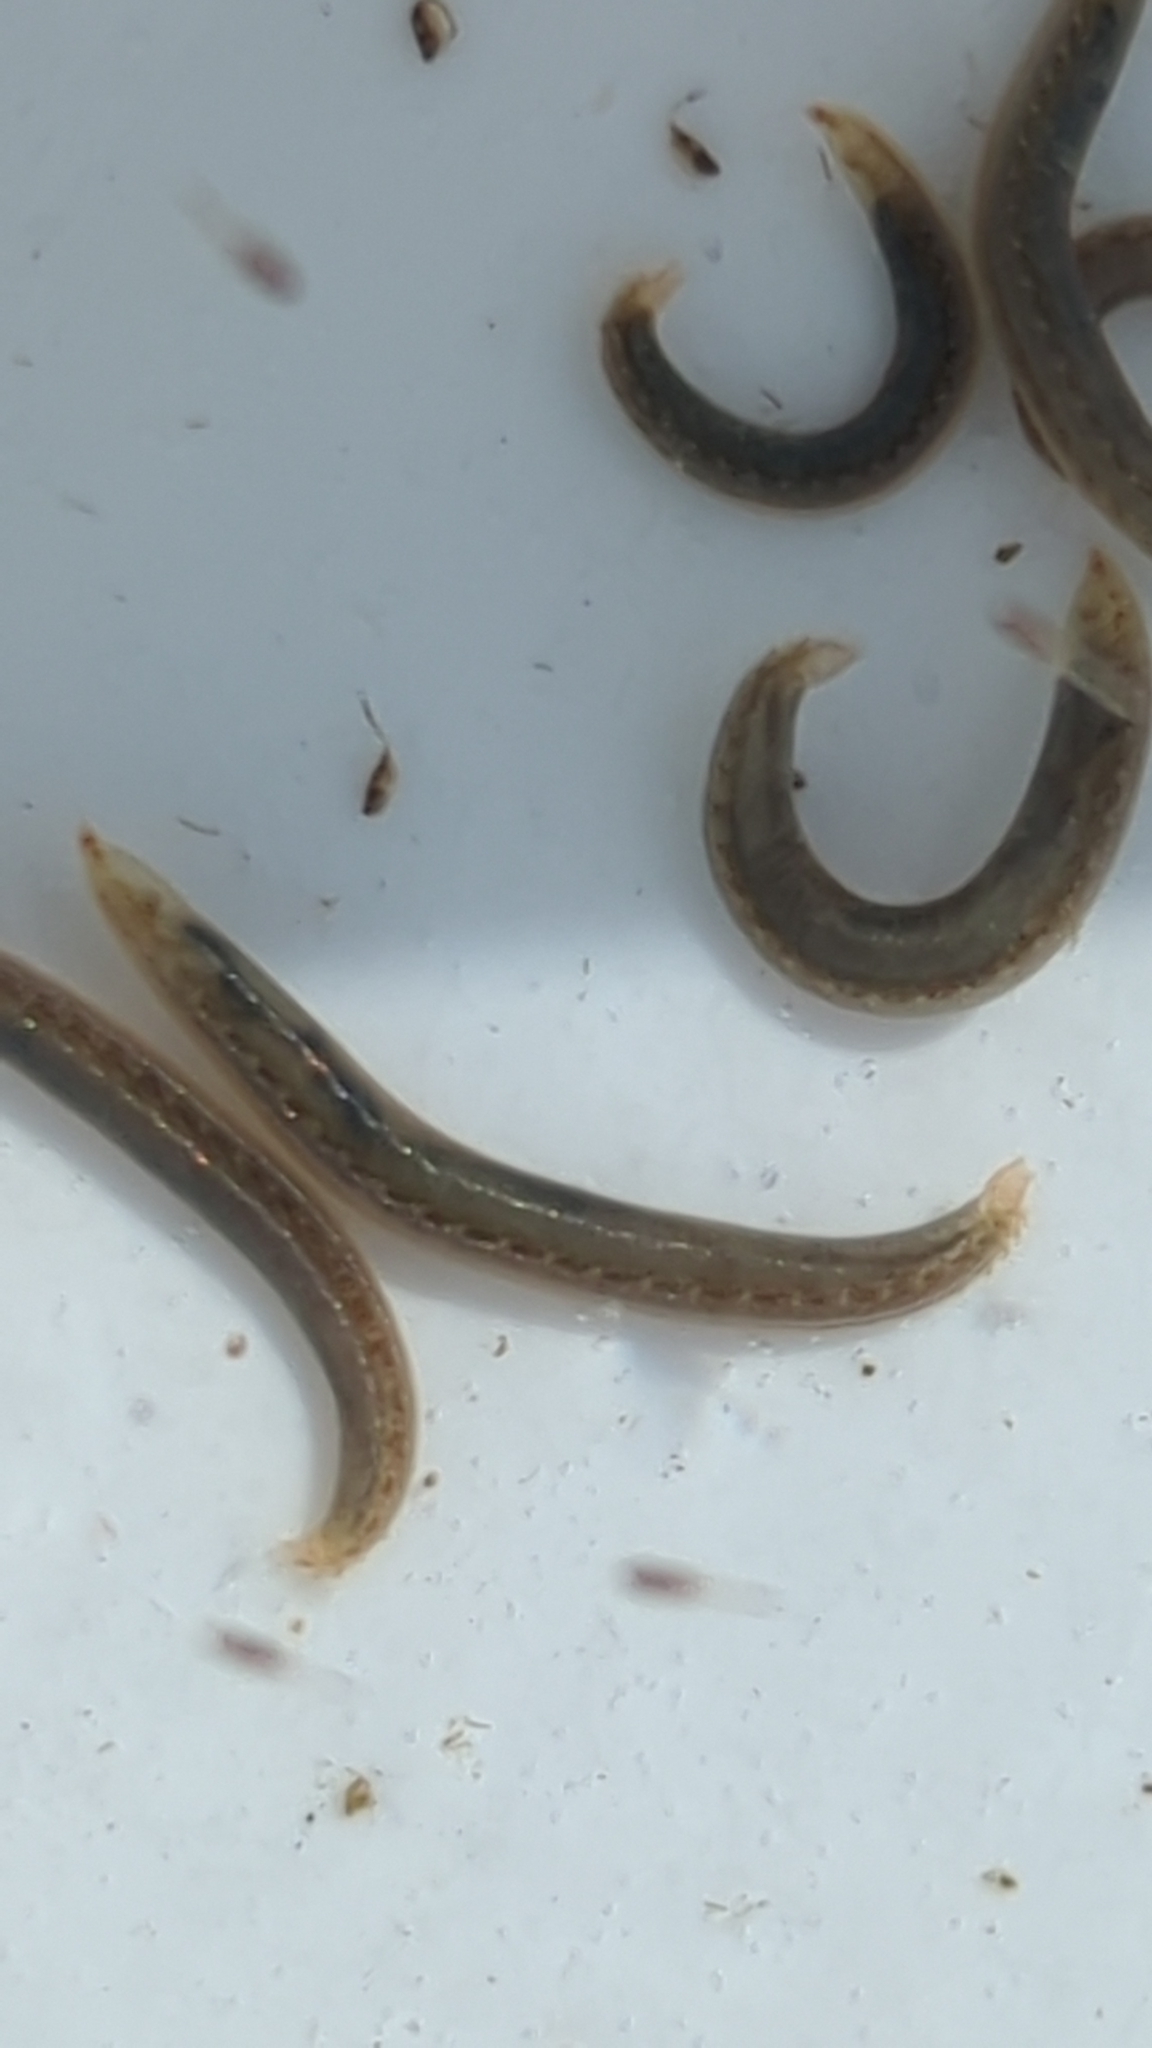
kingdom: Animalia
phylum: Annelida
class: Polychaeta
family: Opheliidae
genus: Armandia
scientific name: Armandia brevis
